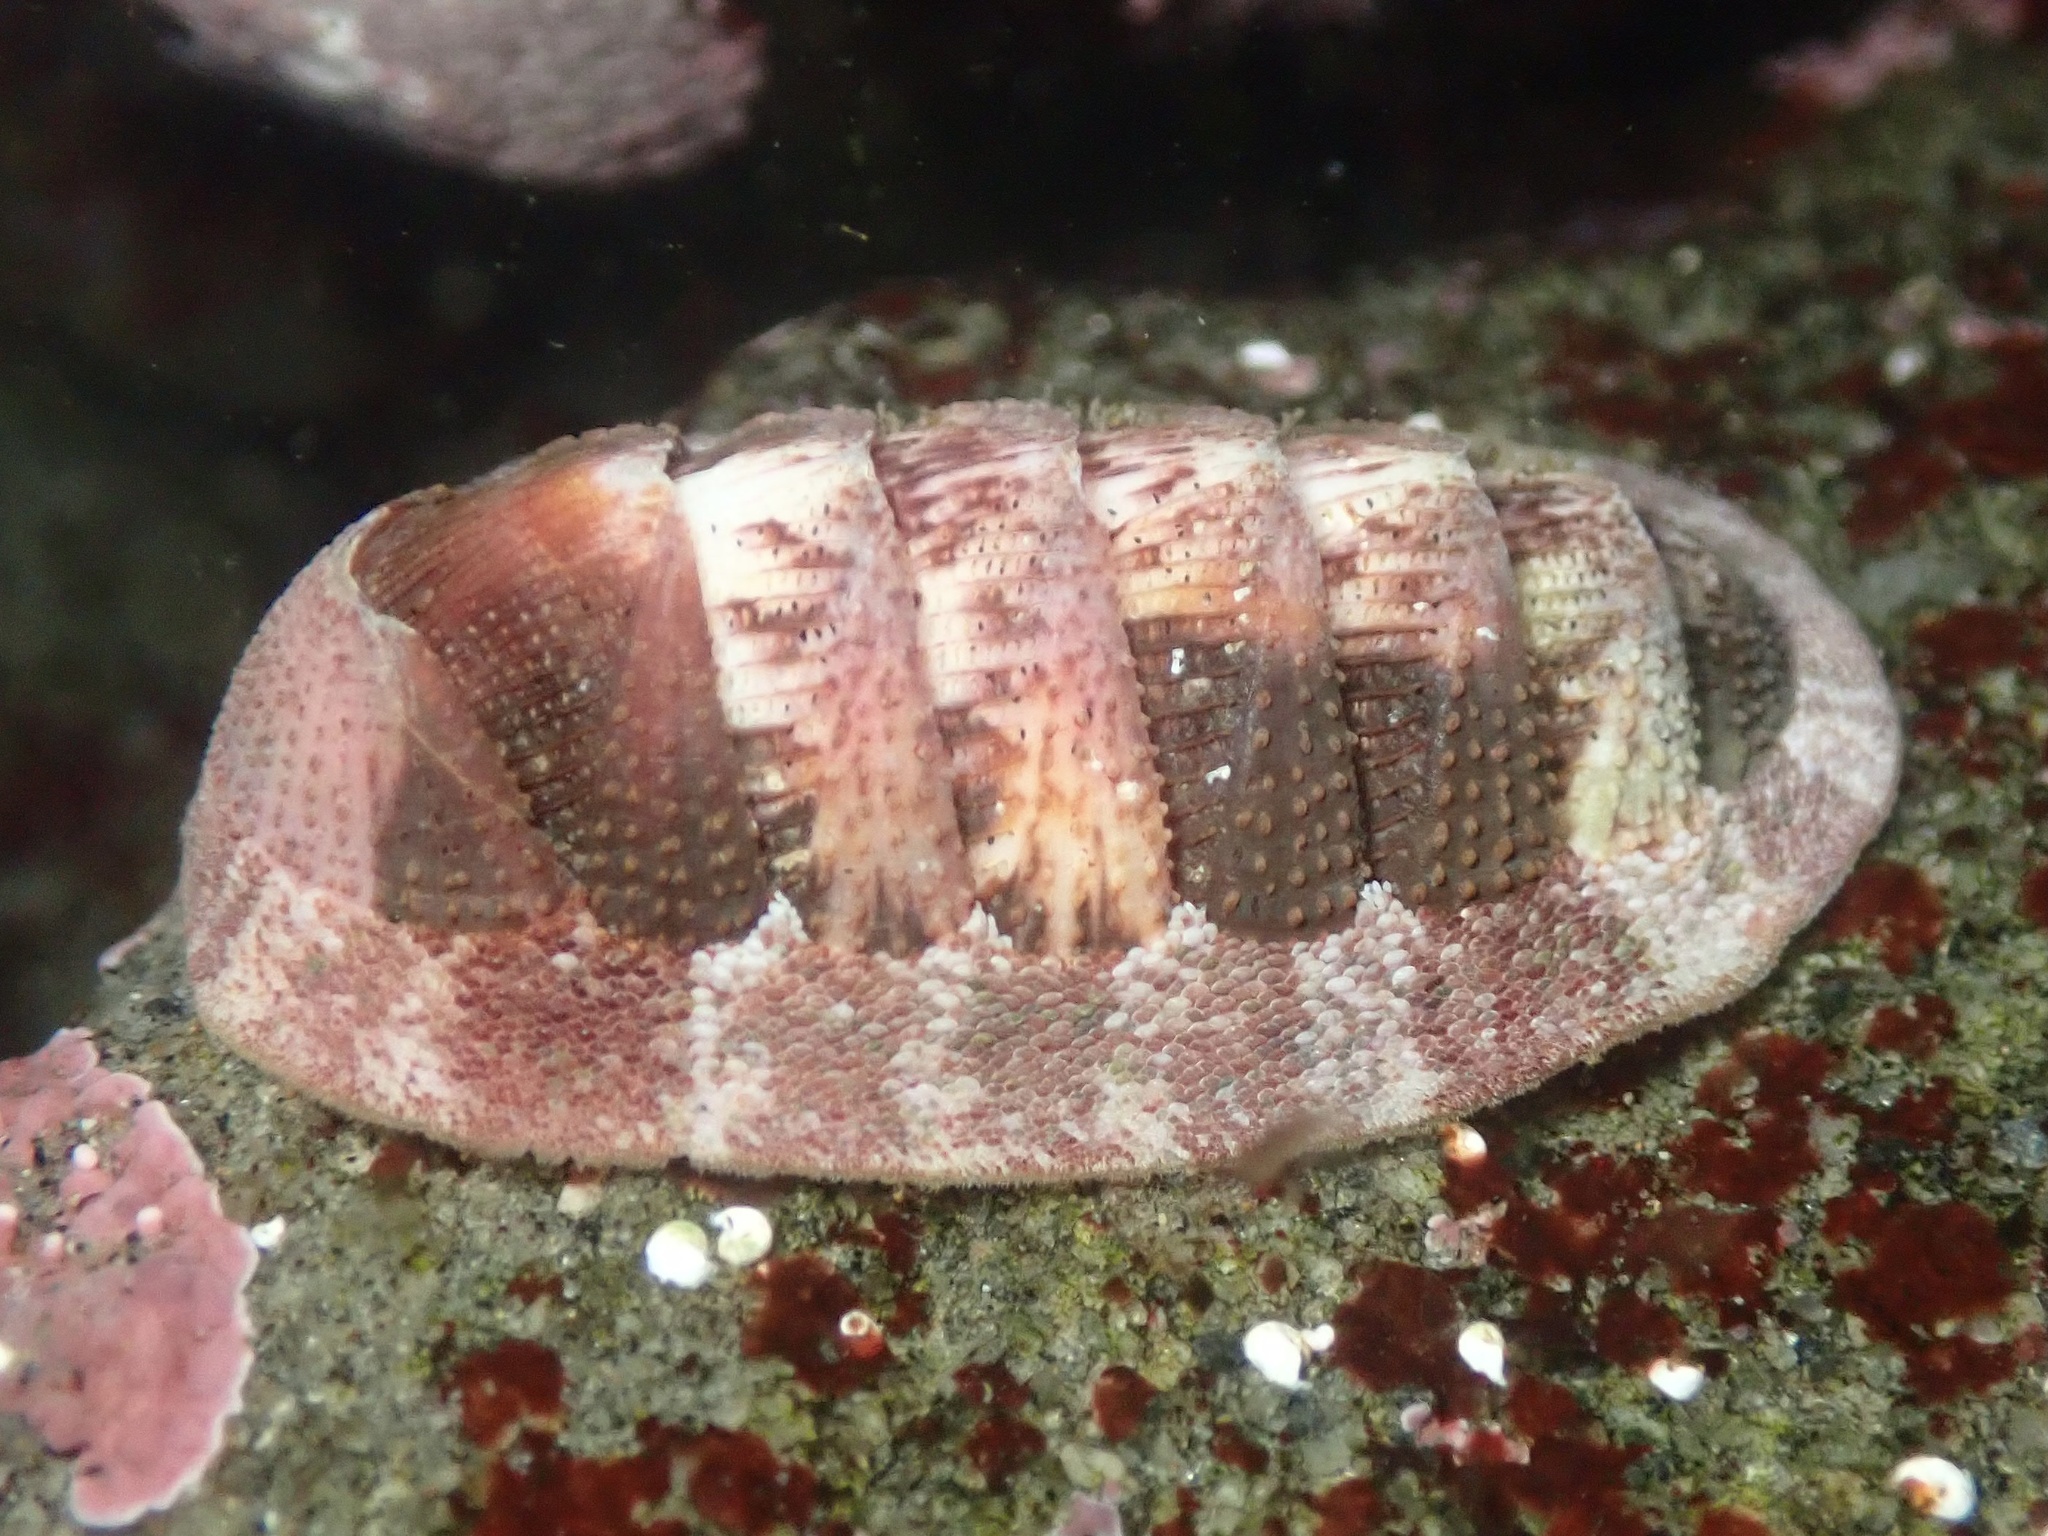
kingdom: Animalia
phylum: Mollusca
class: Polyplacophora
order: Chitonida
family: Ischnochitonidae
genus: Lepidozona
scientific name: Lepidozona mertensii
